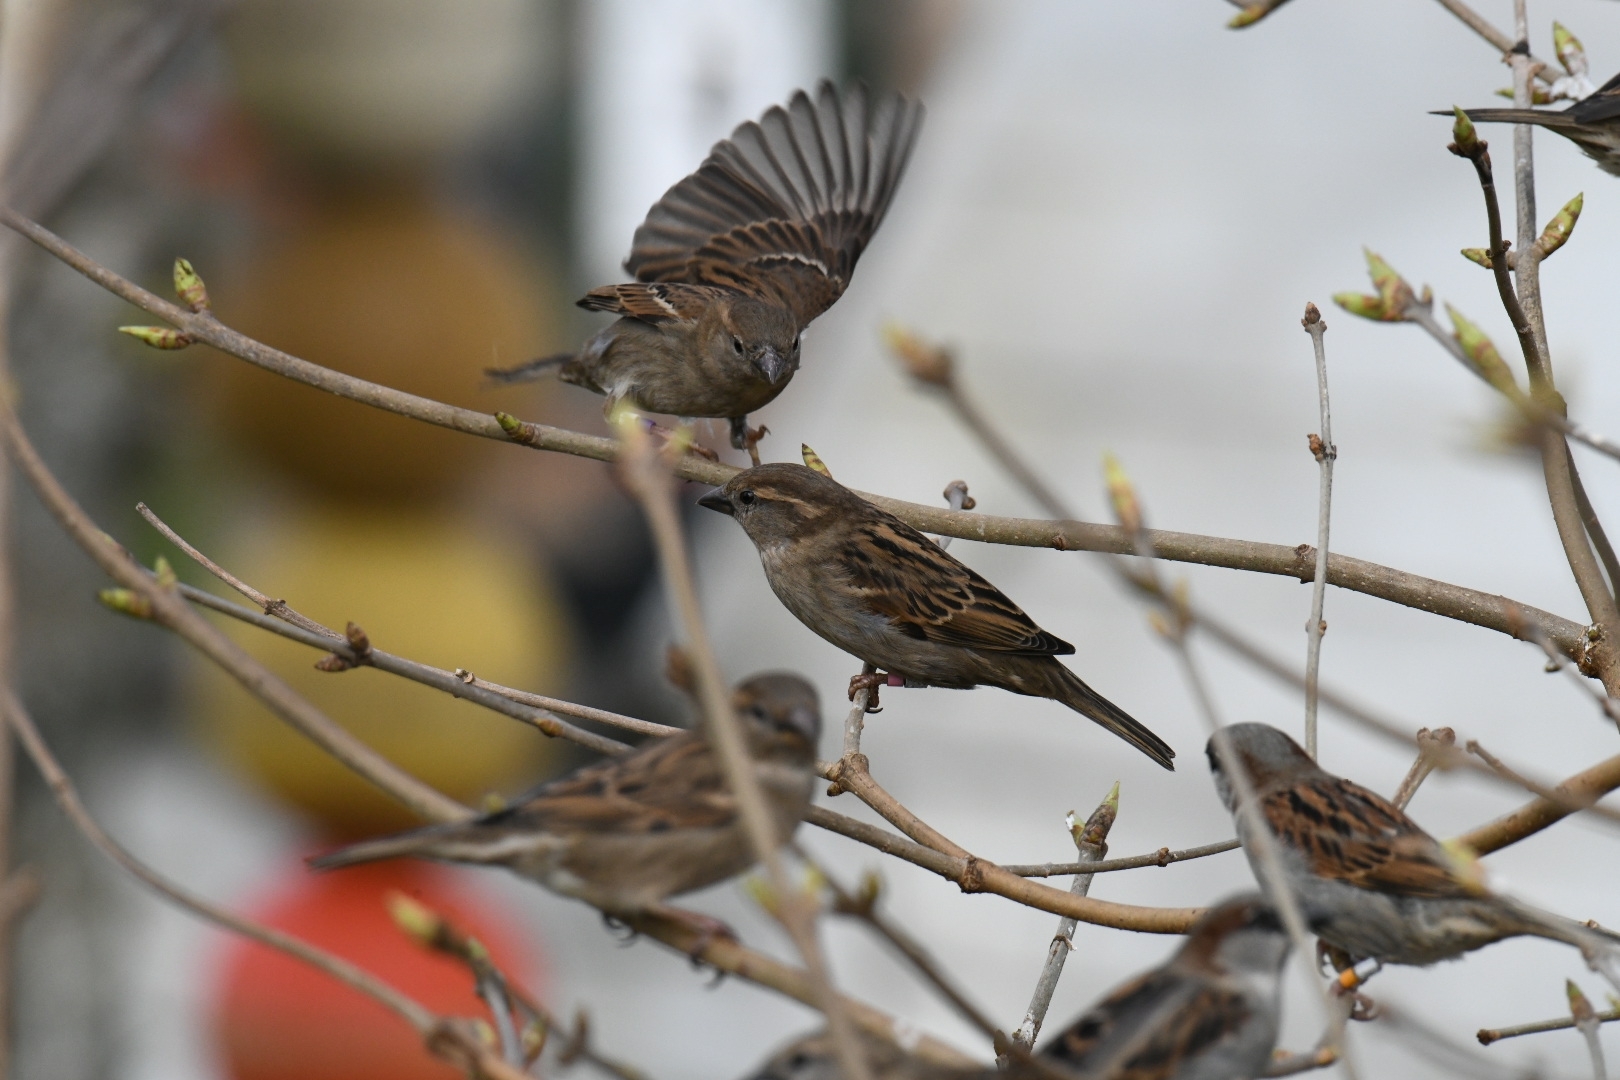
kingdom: Animalia
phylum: Chordata
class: Aves
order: Passeriformes
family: Passeridae
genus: Passer
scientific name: Passer domesticus
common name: House sparrow
